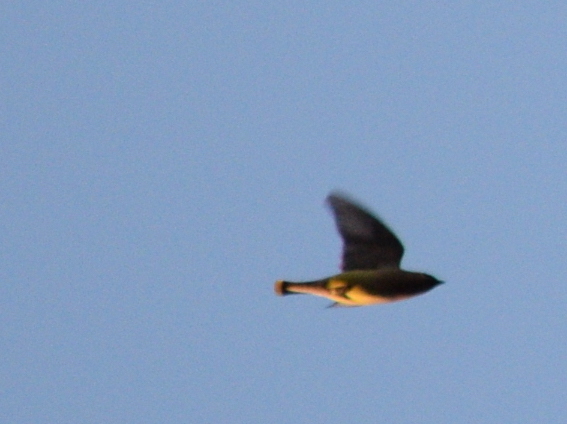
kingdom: Animalia
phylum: Chordata
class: Aves
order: Passeriformes
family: Bombycillidae
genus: Bombycilla
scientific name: Bombycilla cedrorum
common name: Cedar waxwing
